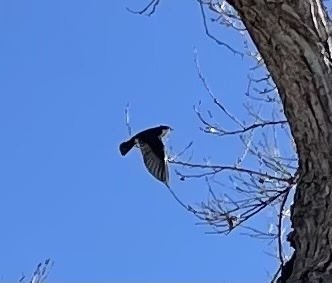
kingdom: Animalia
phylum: Chordata
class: Aves
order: Passeriformes
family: Hirundinidae
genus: Tachycineta
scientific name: Tachycineta bicolor
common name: Tree swallow
